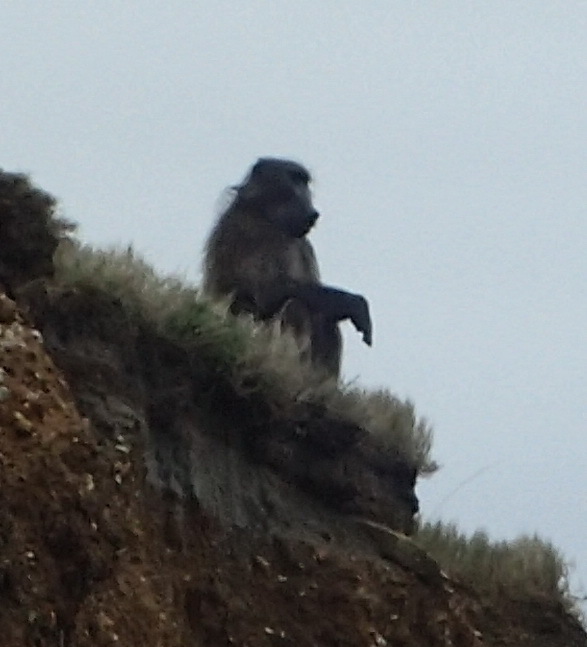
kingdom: Animalia
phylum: Chordata
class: Mammalia
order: Primates
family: Cercopithecidae
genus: Papio
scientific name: Papio ursinus
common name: Chacma baboon
